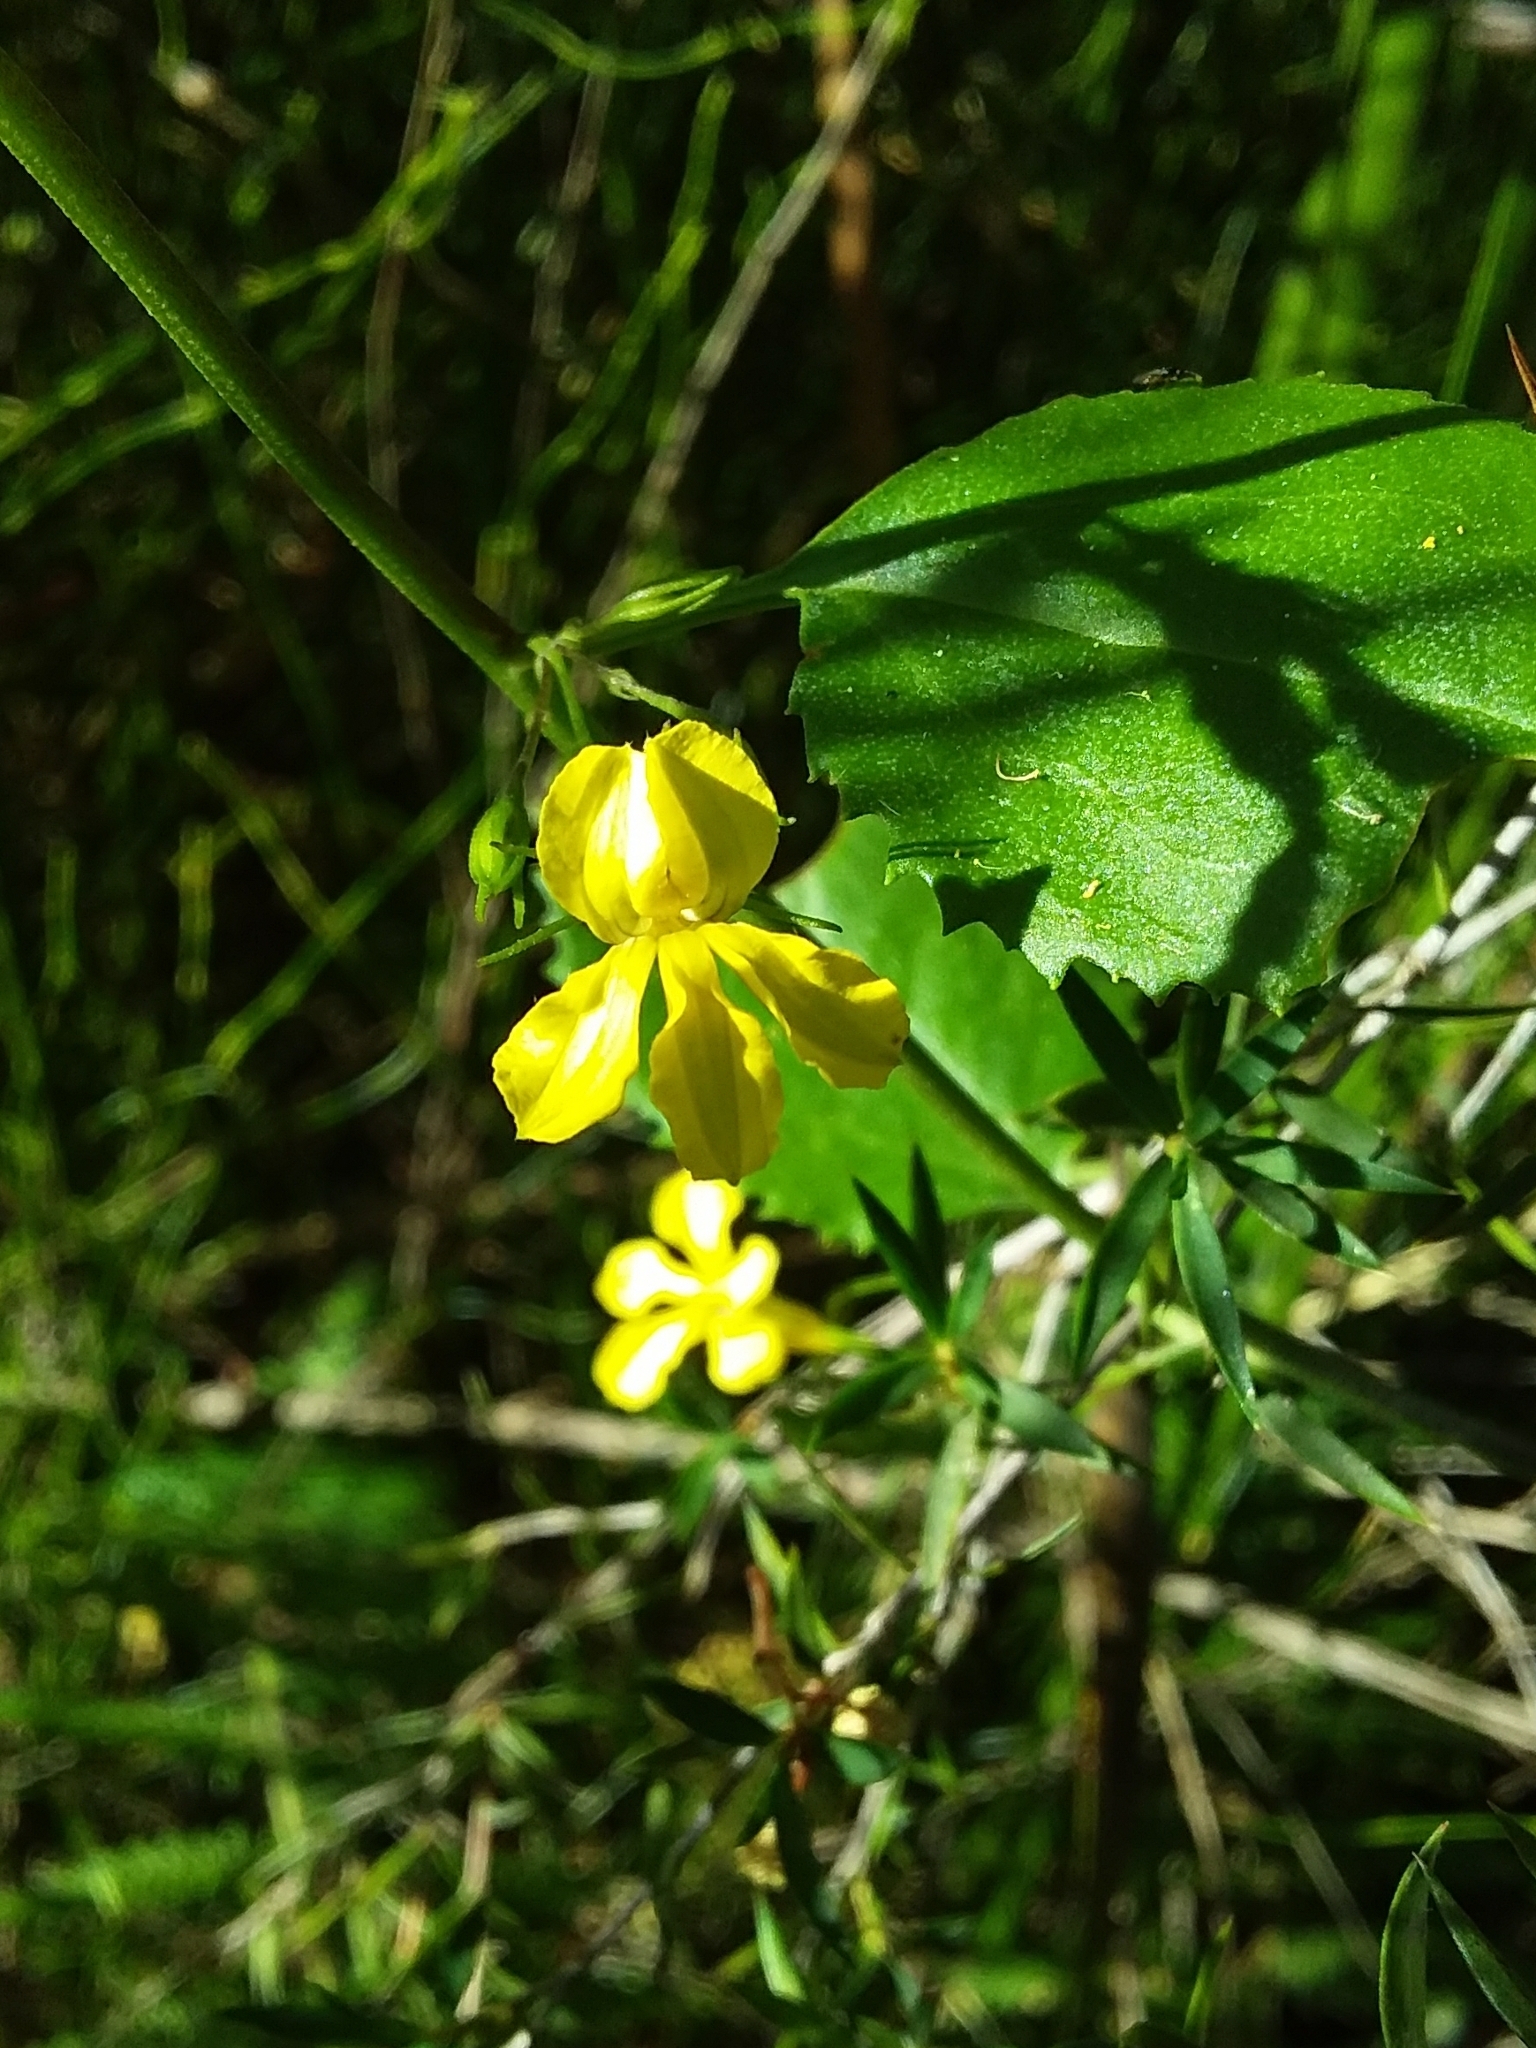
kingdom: Plantae
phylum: Tracheophyta
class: Magnoliopsida
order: Asterales
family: Goodeniaceae
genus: Goodenia
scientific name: Goodenia ovata
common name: Hop goodenia
